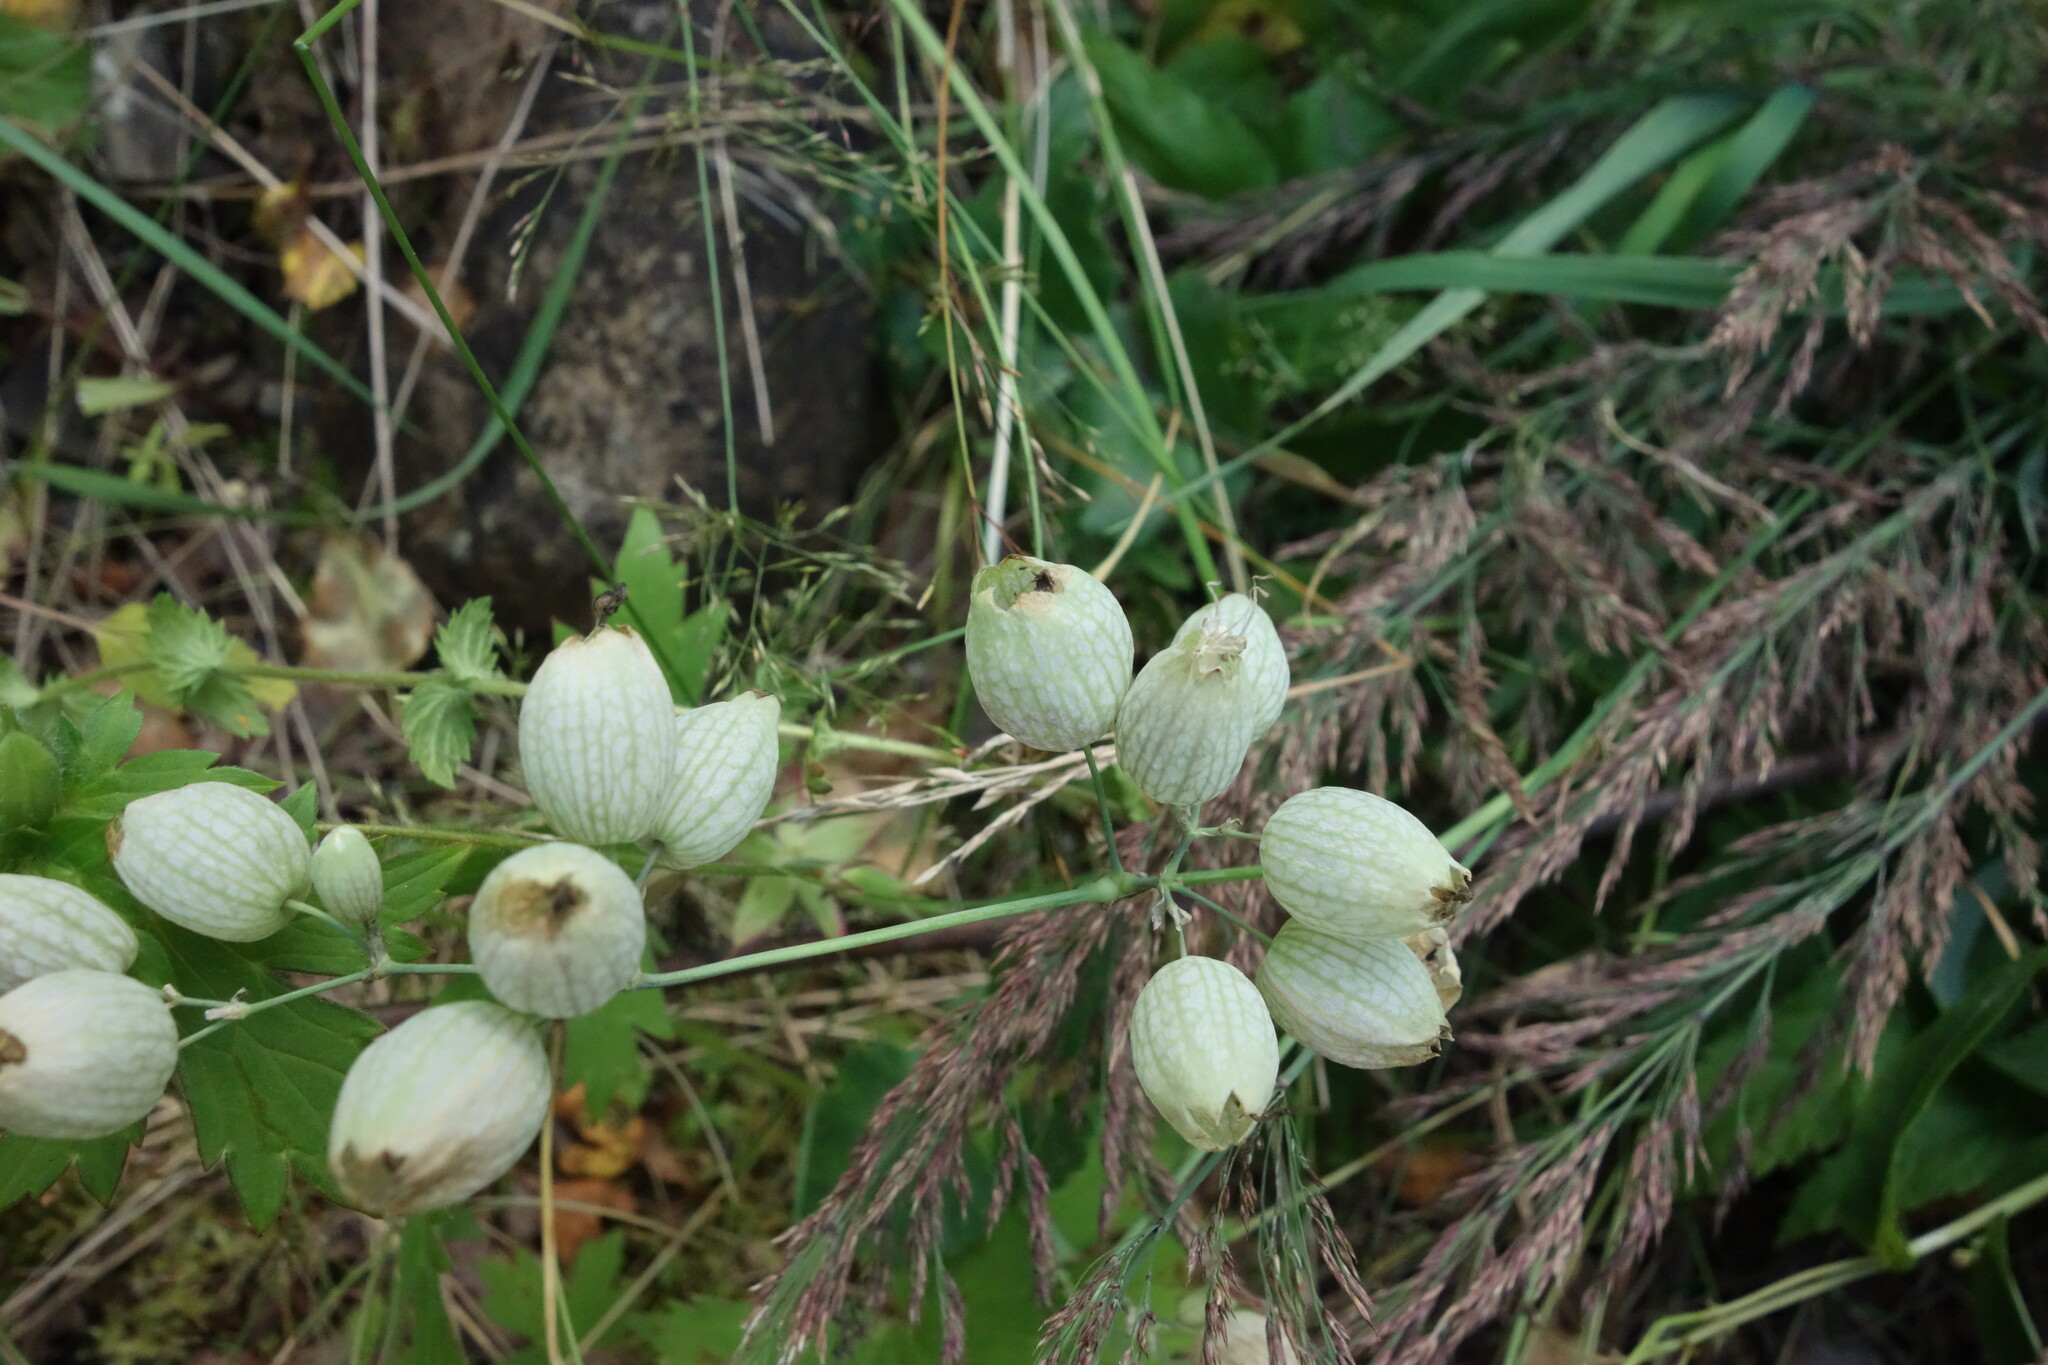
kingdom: Plantae
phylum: Tracheophyta
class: Magnoliopsida
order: Caryophyllales
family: Caryophyllaceae
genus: Silene
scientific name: Silene vulgaris
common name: Bladder campion
